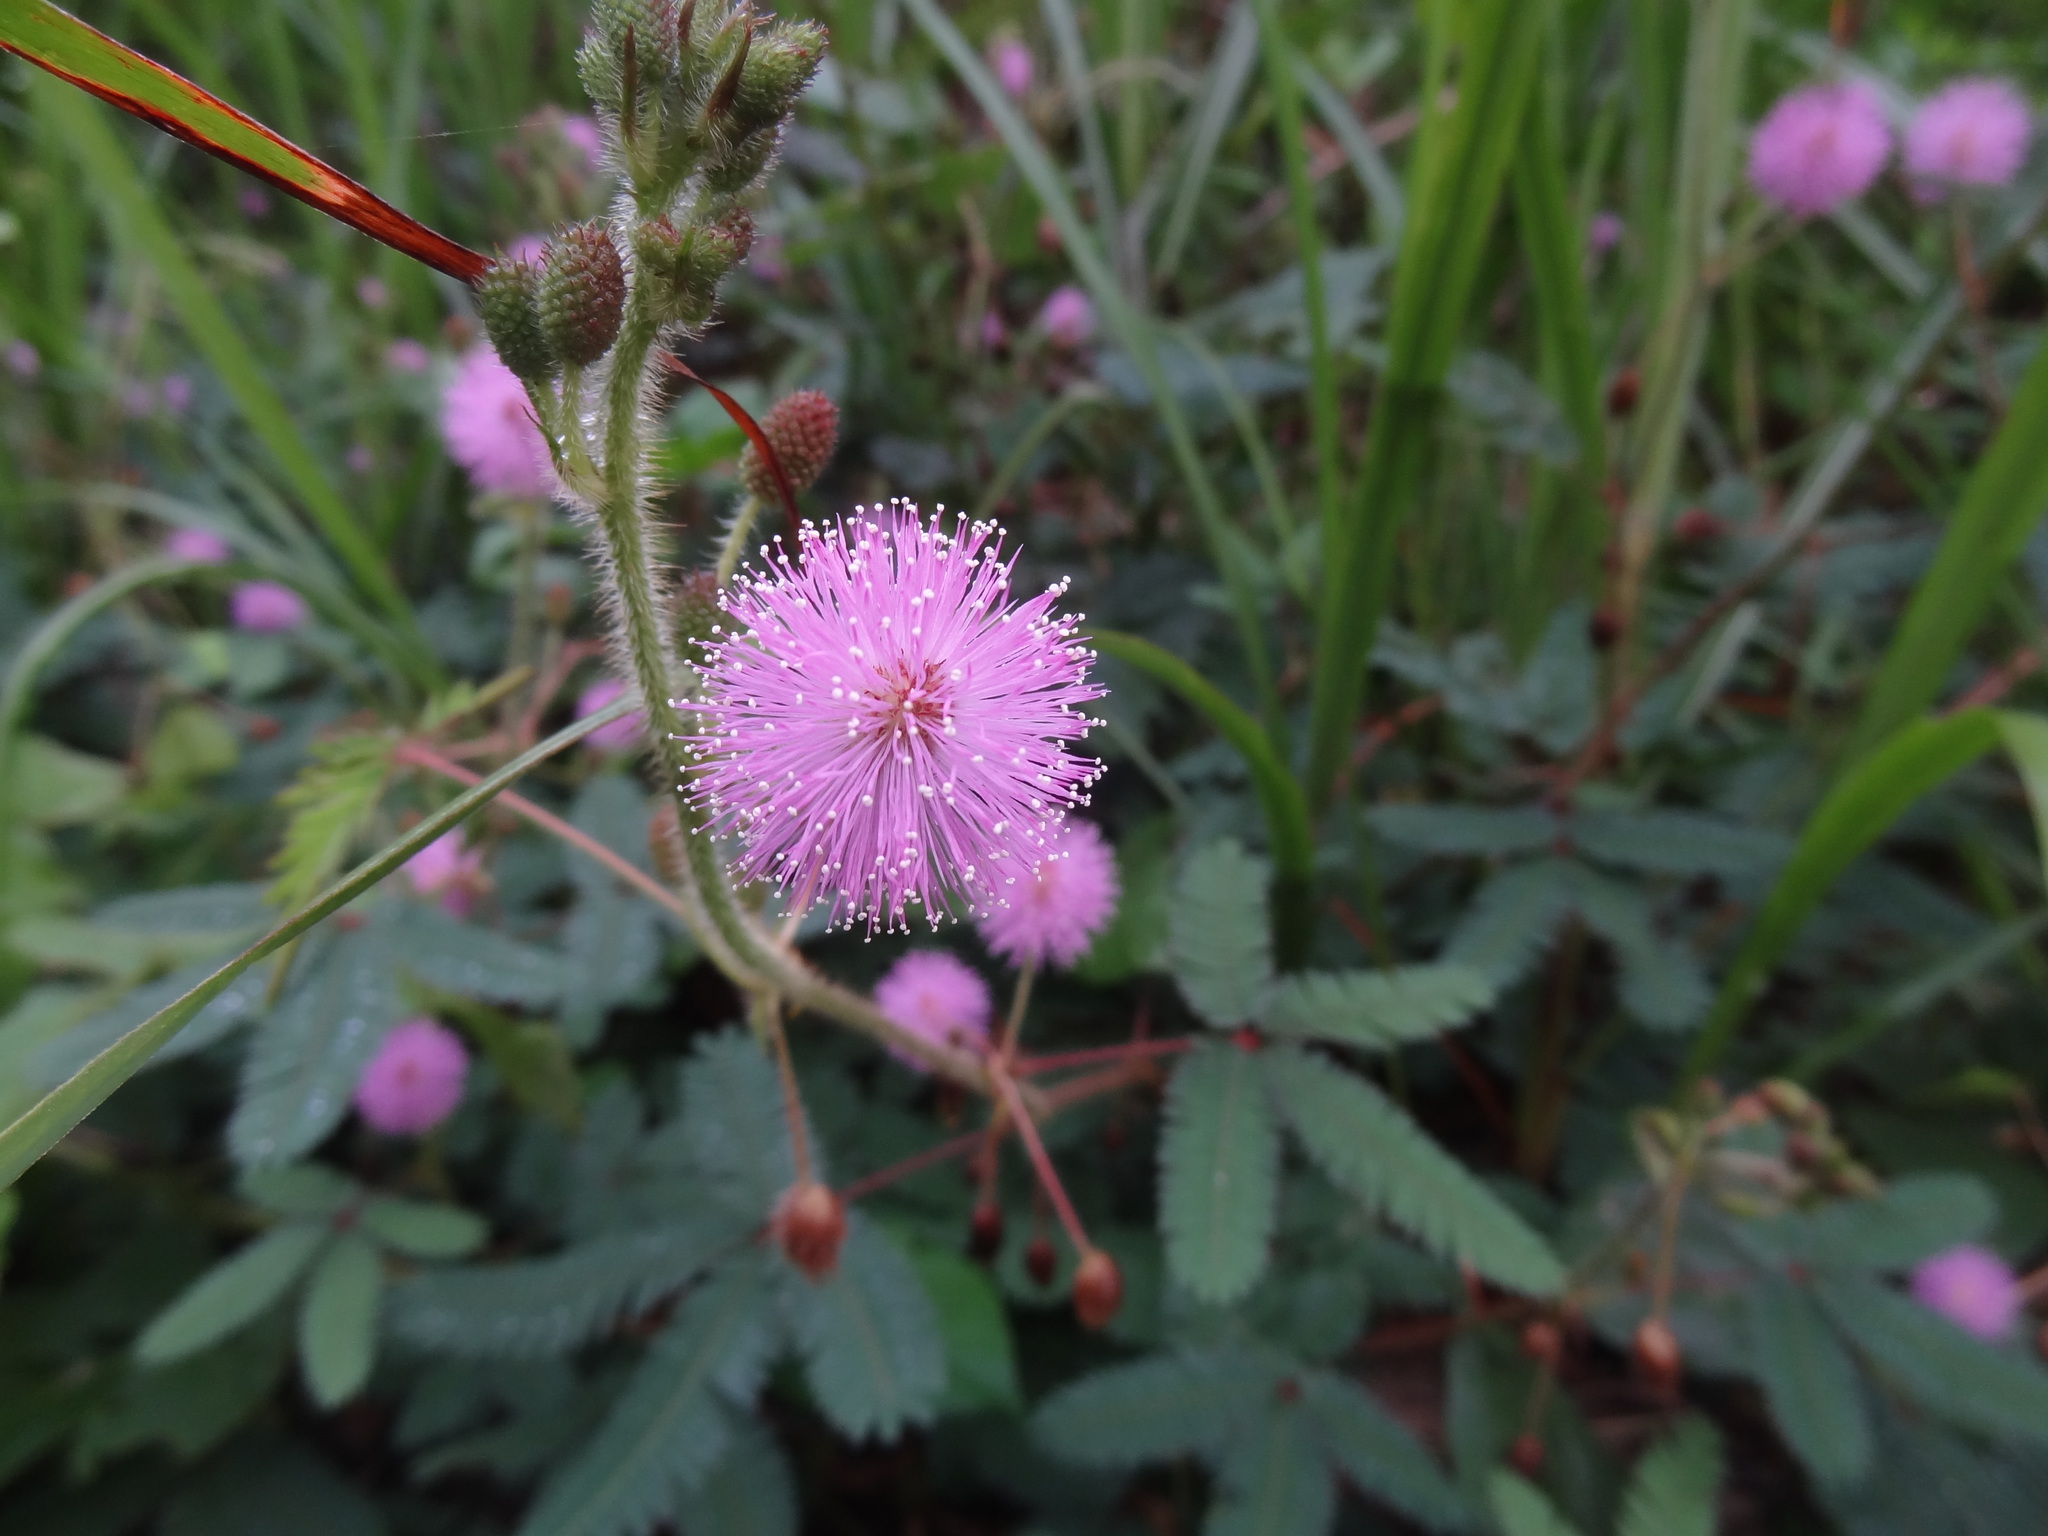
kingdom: Plantae
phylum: Tracheophyta
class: Magnoliopsida
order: Fabales
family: Fabaceae
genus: Mimosa
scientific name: Mimosa pudica
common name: Sensitive plant
